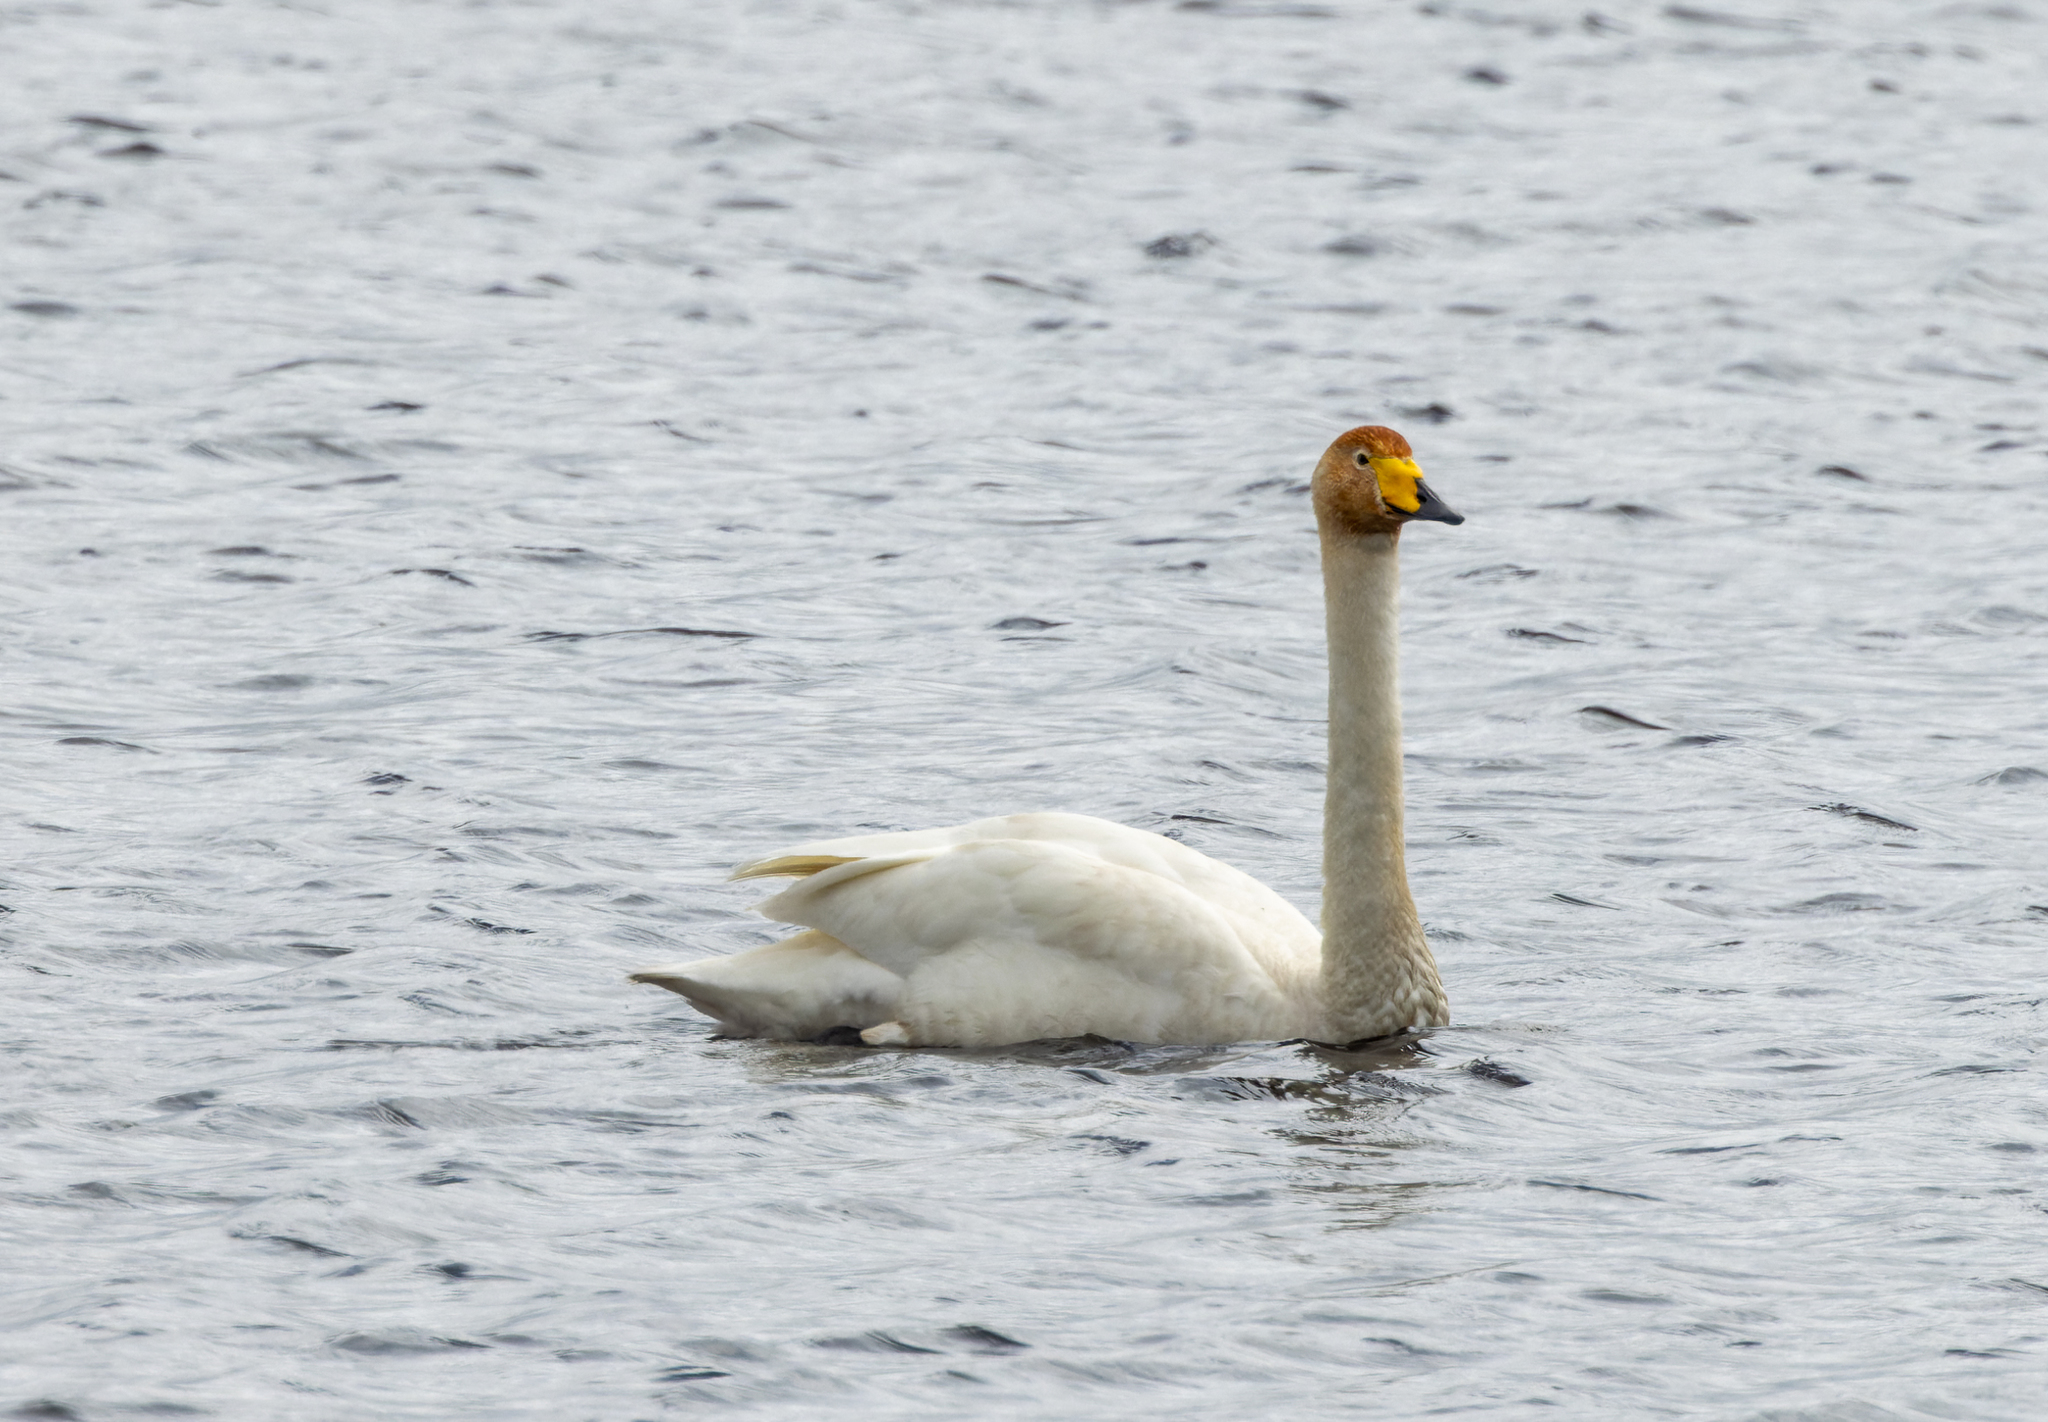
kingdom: Animalia
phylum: Chordata
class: Aves
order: Anseriformes
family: Anatidae
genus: Cygnus
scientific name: Cygnus cygnus
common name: Whooper swan
